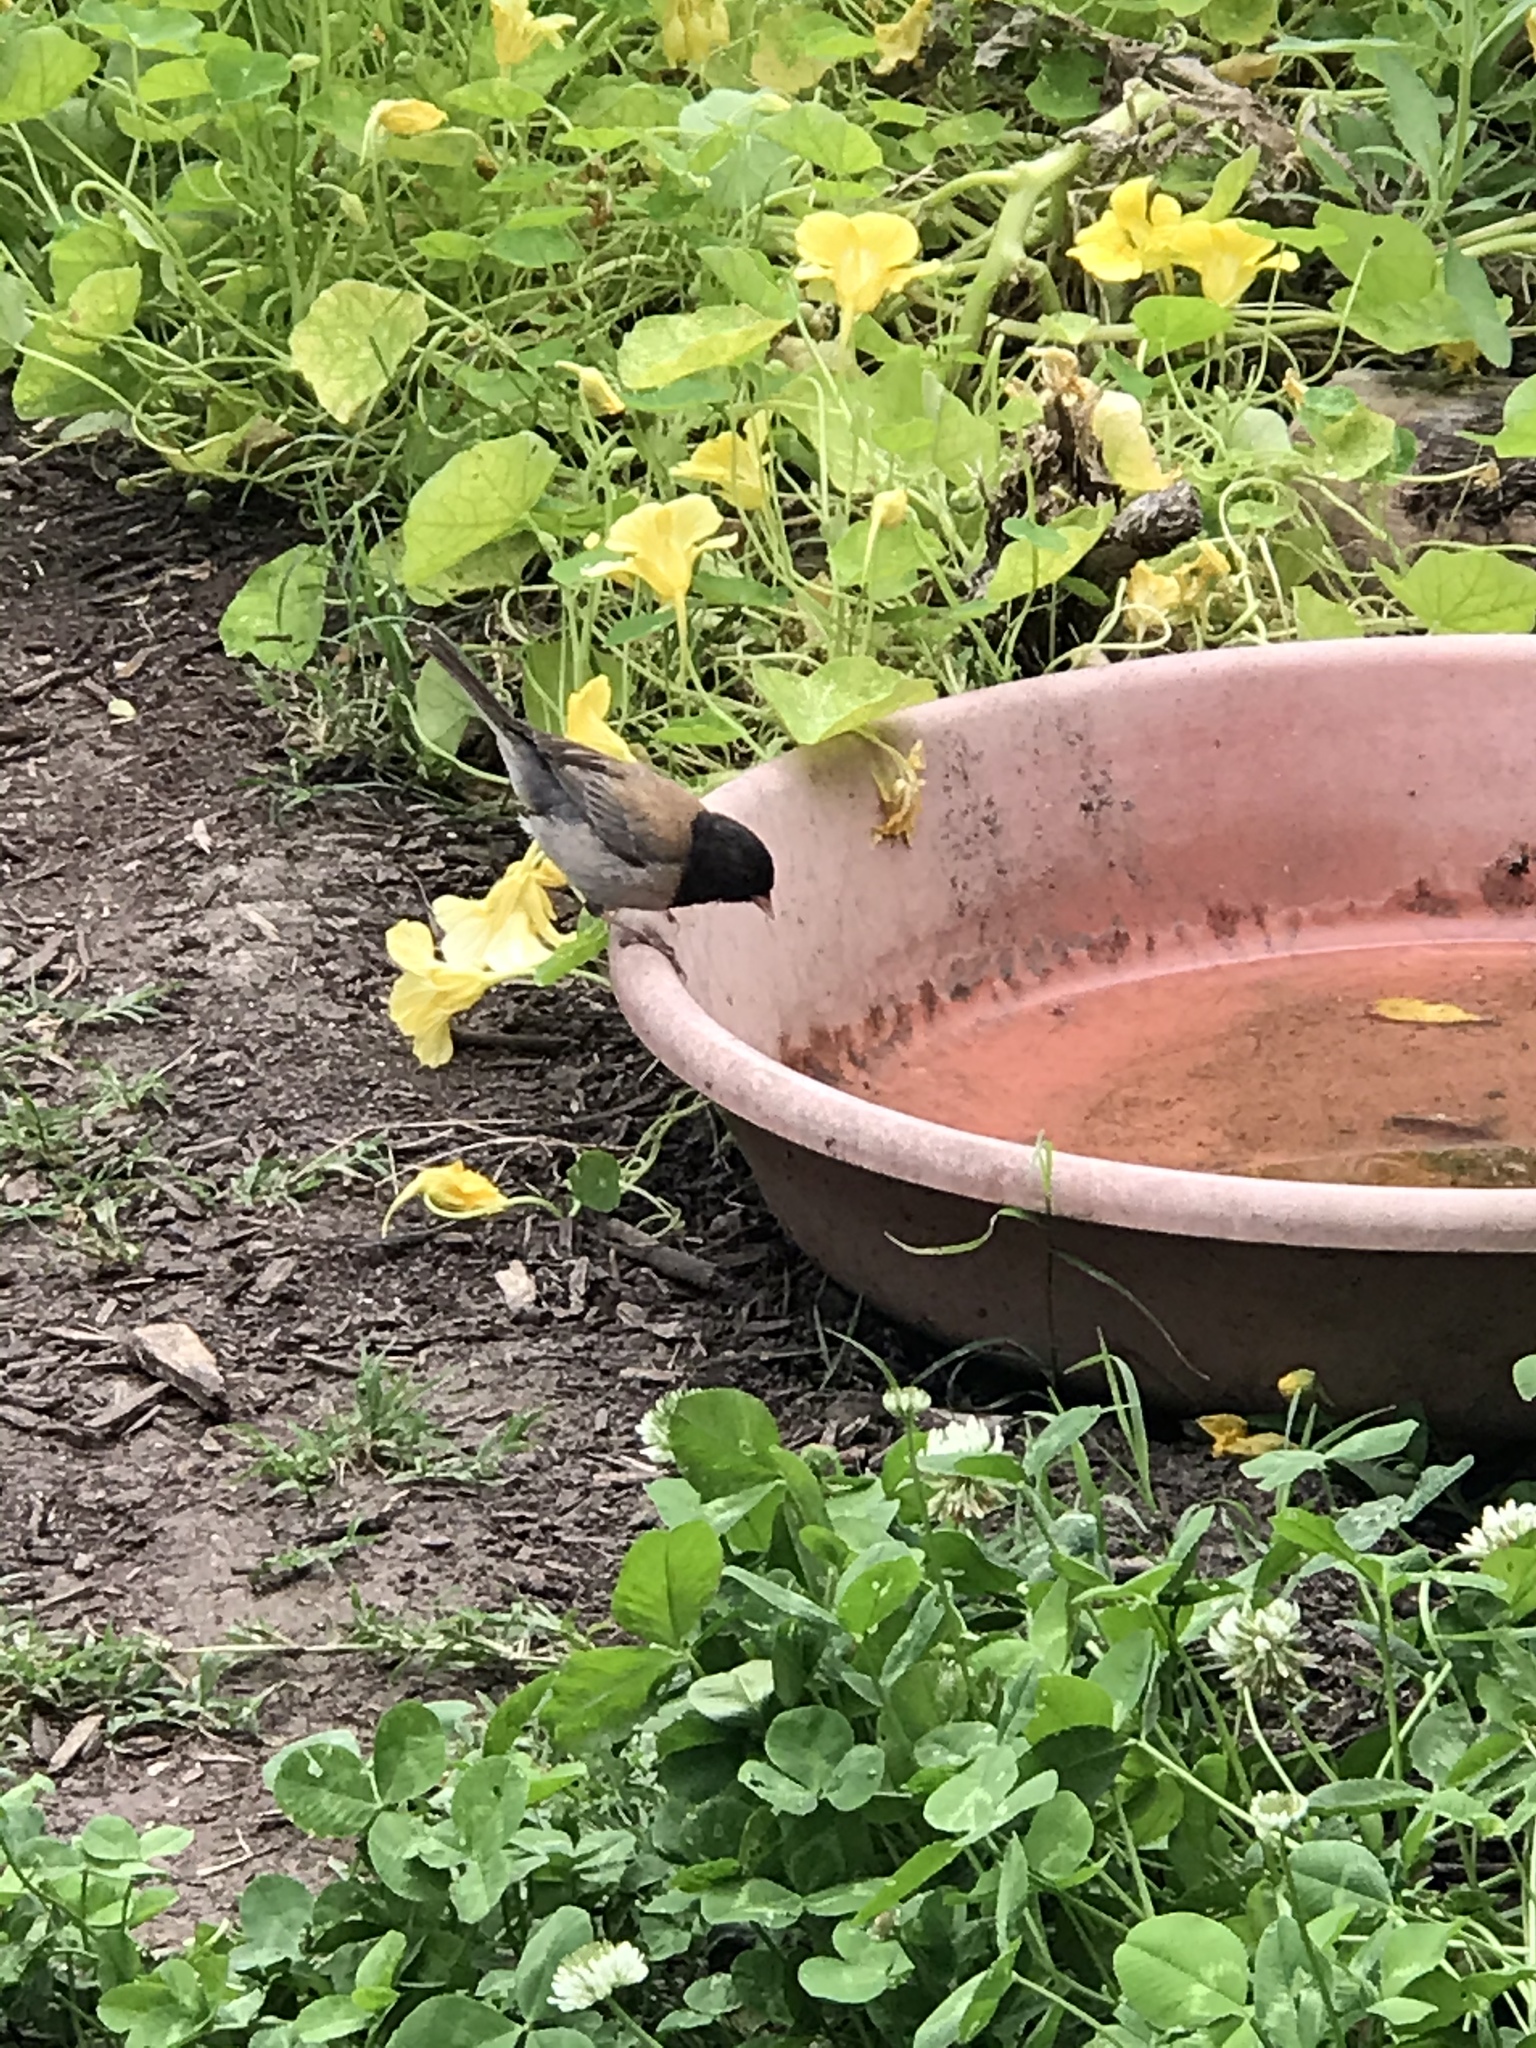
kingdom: Animalia
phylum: Chordata
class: Aves
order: Passeriformes
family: Passerellidae
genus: Junco
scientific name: Junco hyemalis
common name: Dark-eyed junco
